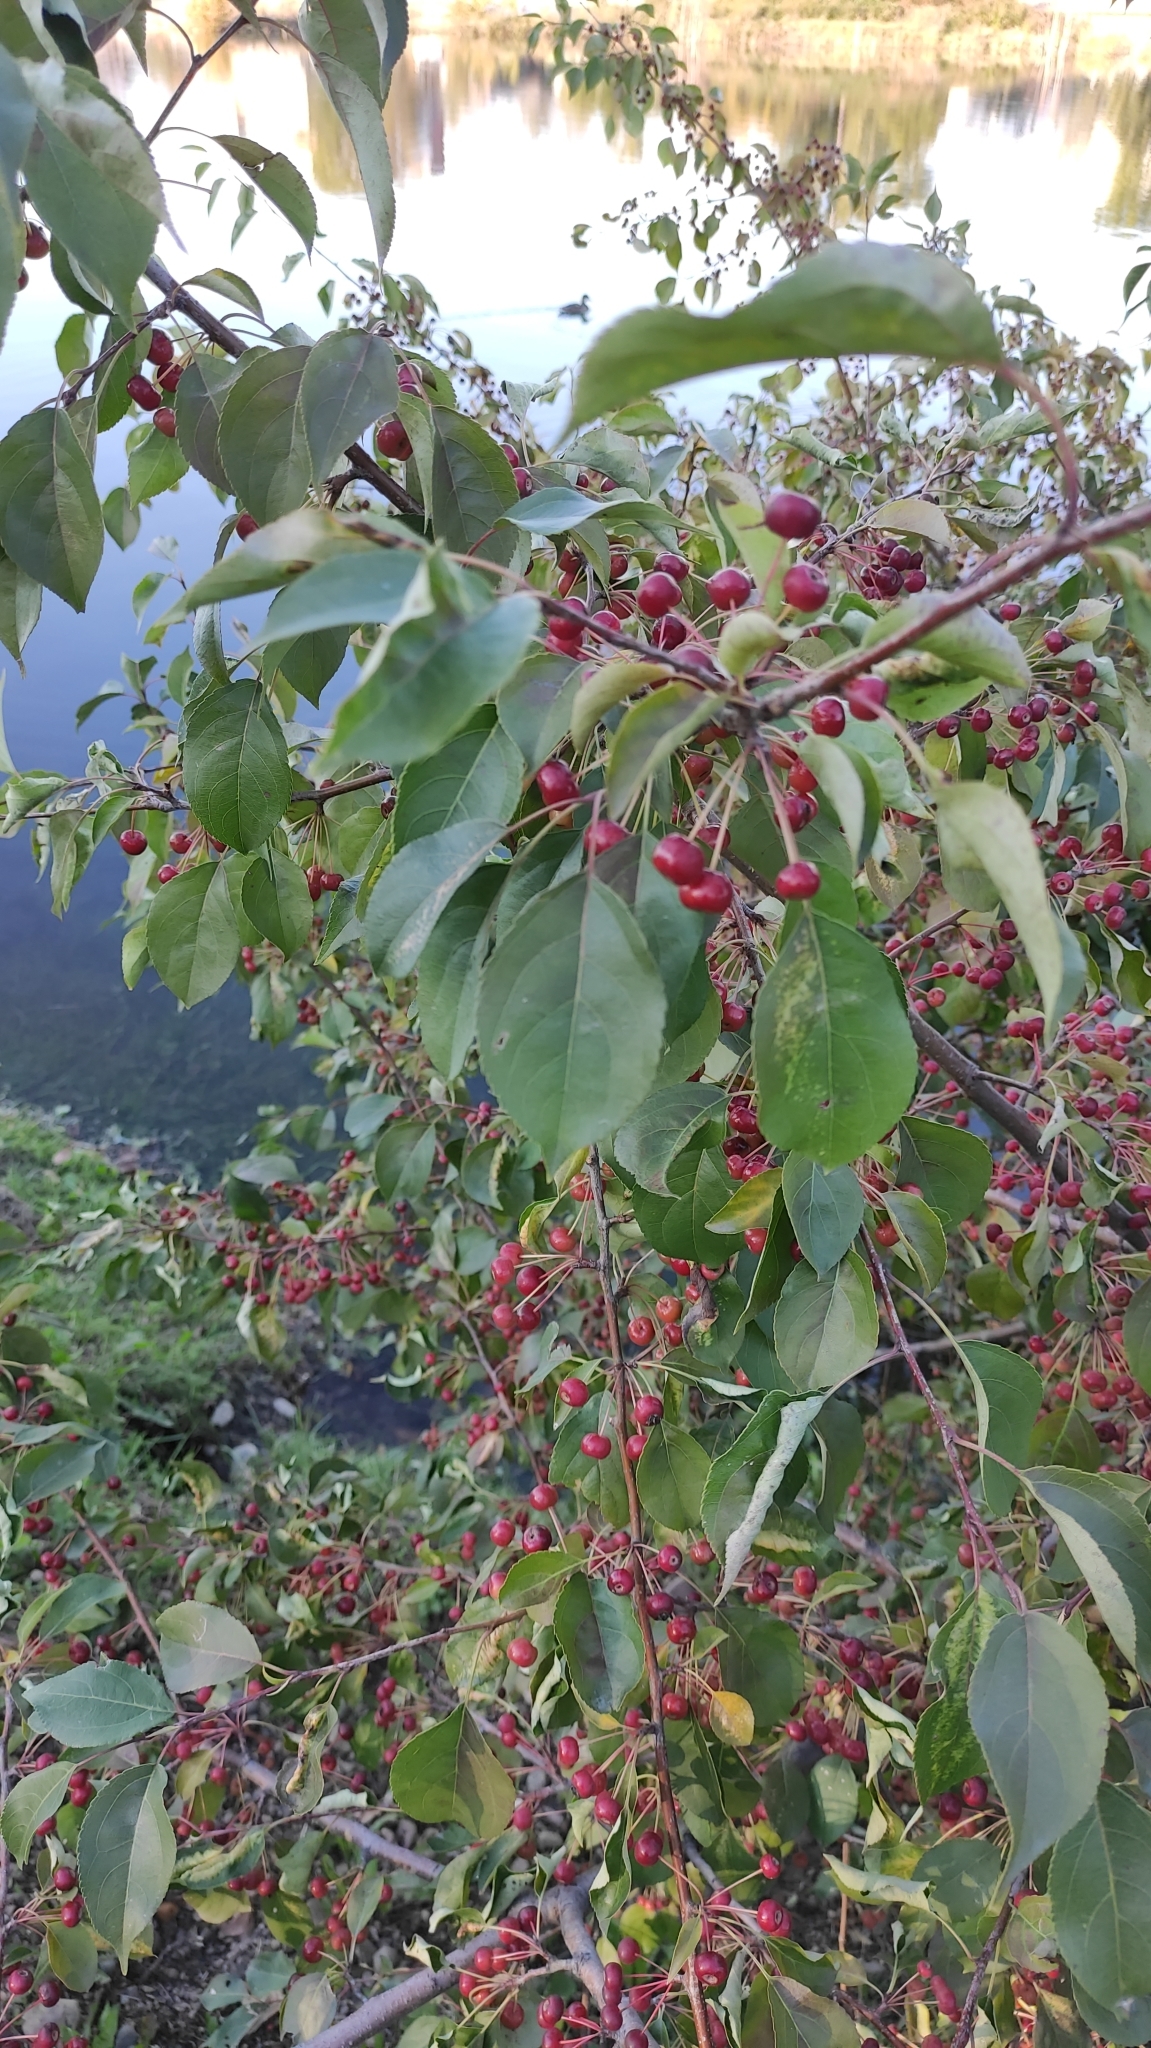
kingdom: Plantae
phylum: Tracheophyta
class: Magnoliopsida
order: Rosales
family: Rosaceae
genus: Malus
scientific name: Malus baccata
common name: Siberian crab
